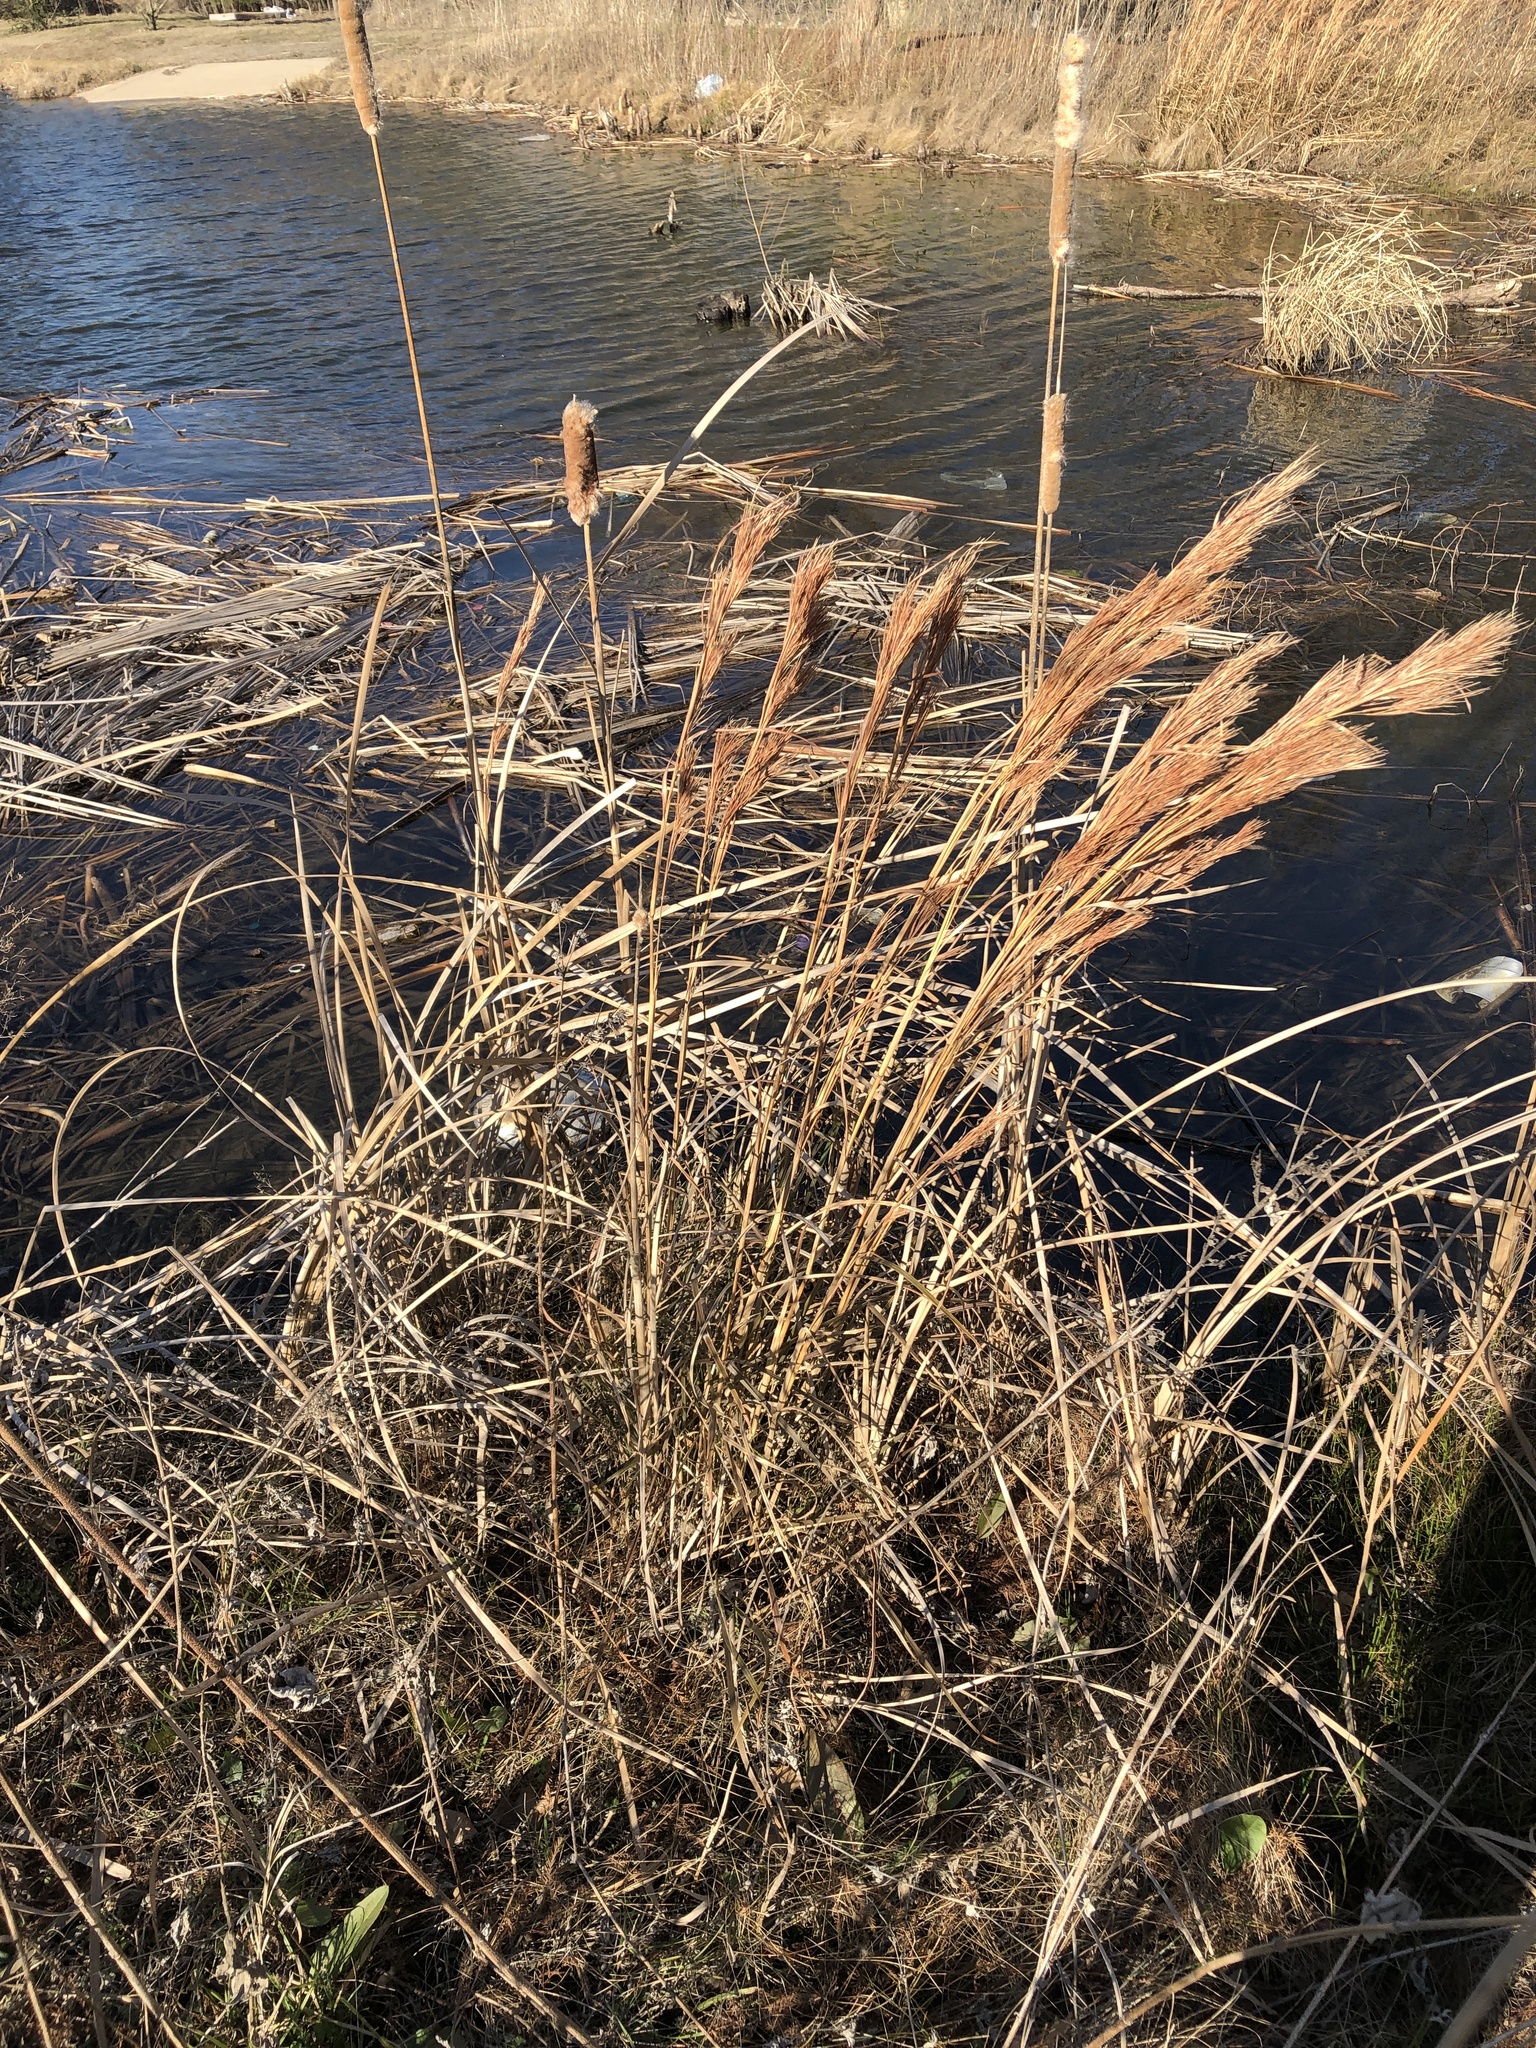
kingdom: Plantae
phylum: Tracheophyta
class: Liliopsida
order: Poales
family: Poaceae
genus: Andropogon
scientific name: Andropogon tenuispatheus
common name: Bushy bluestem
